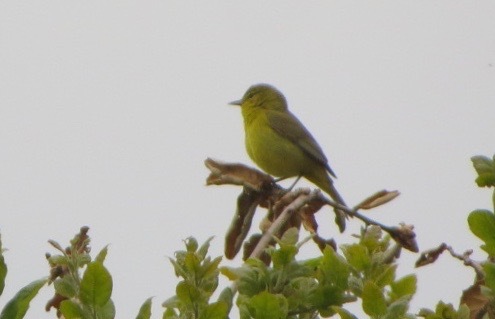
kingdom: Animalia
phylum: Chordata
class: Aves
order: Passeriformes
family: Parulidae
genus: Leiothlypis
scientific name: Leiothlypis celata
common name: Orange-crowned warbler
